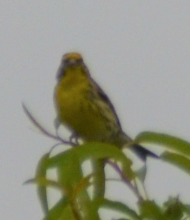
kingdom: Animalia
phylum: Chordata
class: Aves
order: Passeriformes
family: Fringillidae
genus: Serinus
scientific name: Serinus serinus
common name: European serin
